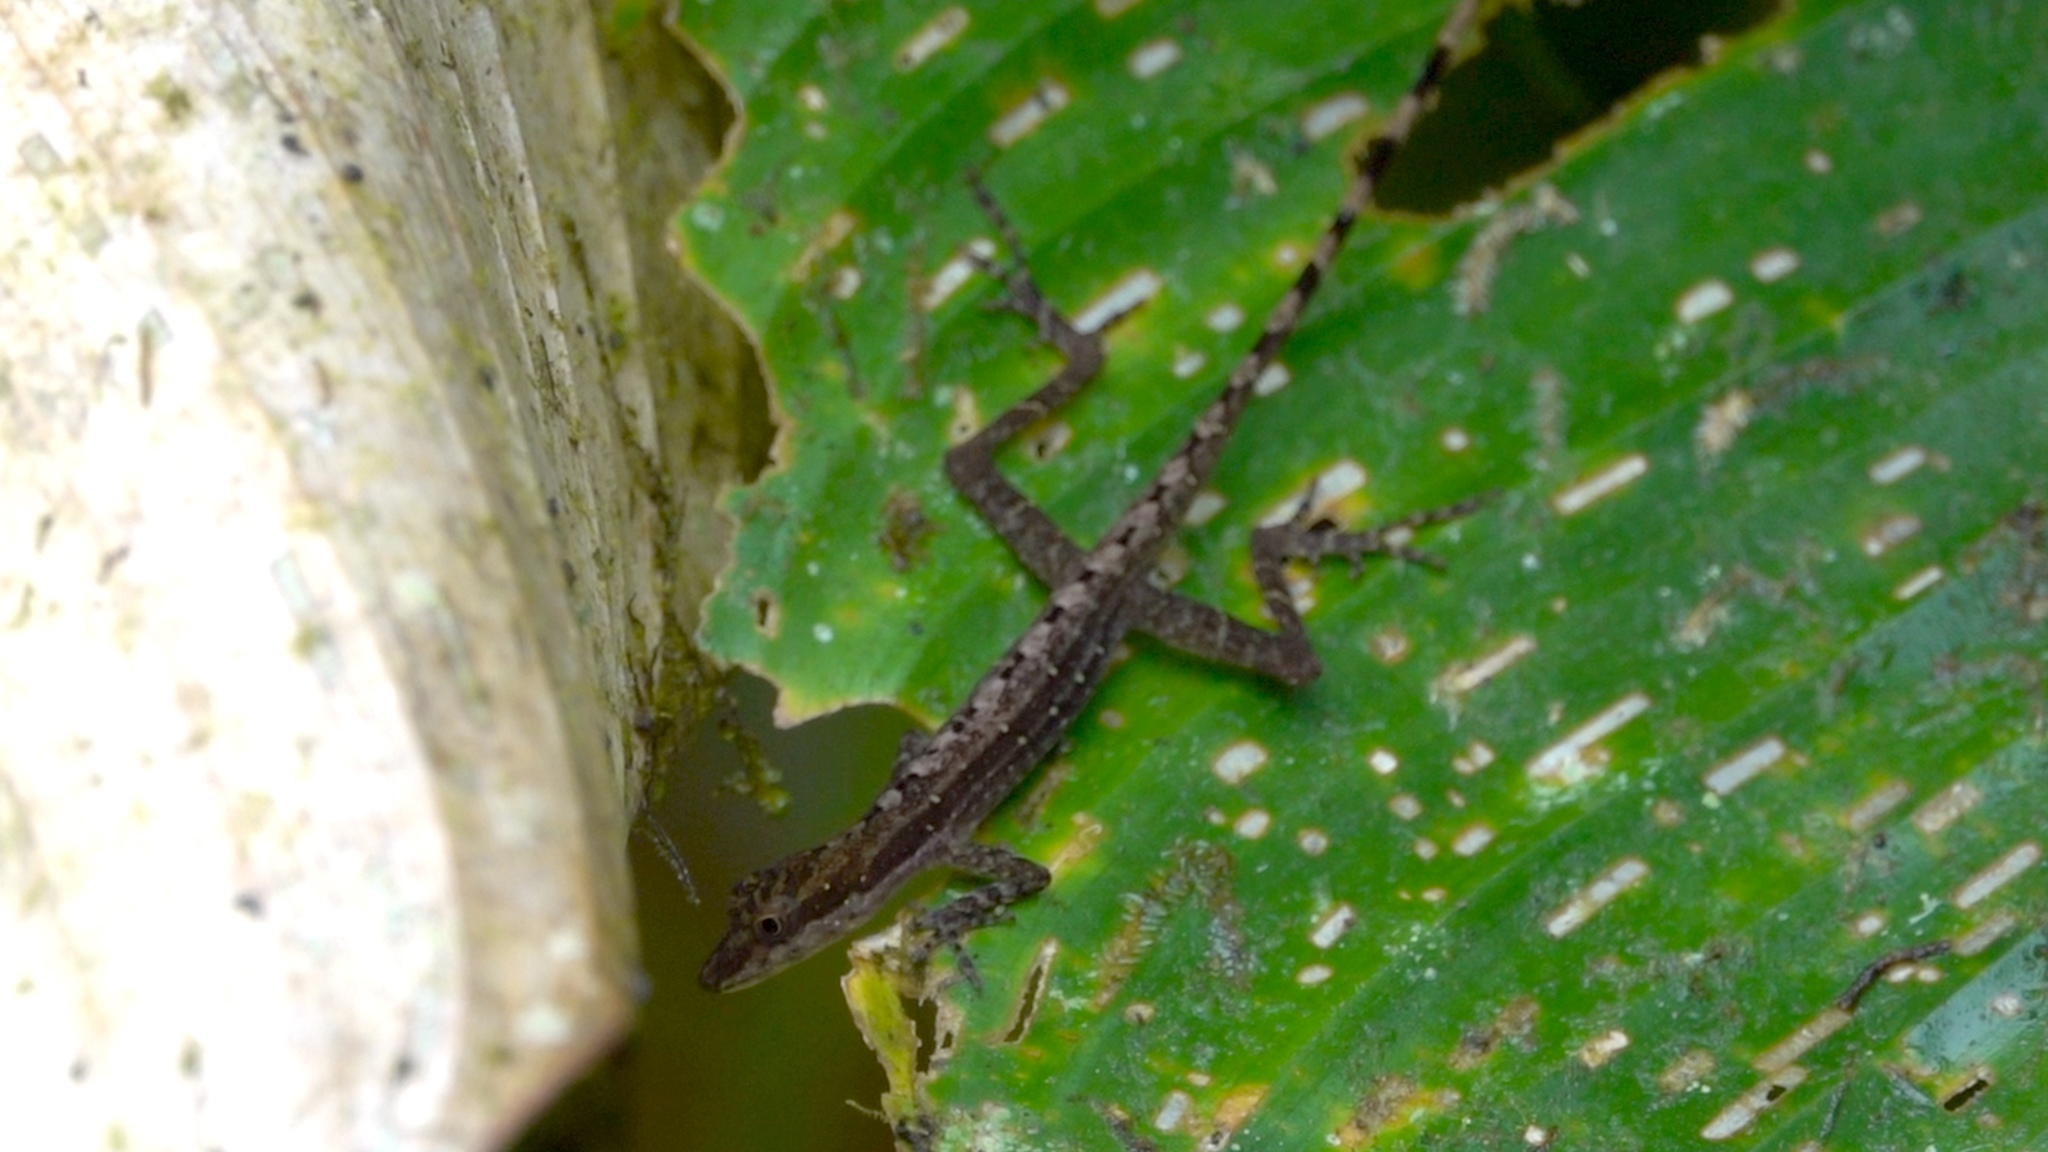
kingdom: Animalia
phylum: Chordata
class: Squamata
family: Dactyloidae
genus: Anolis
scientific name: Anolis limifrons
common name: Border anole
